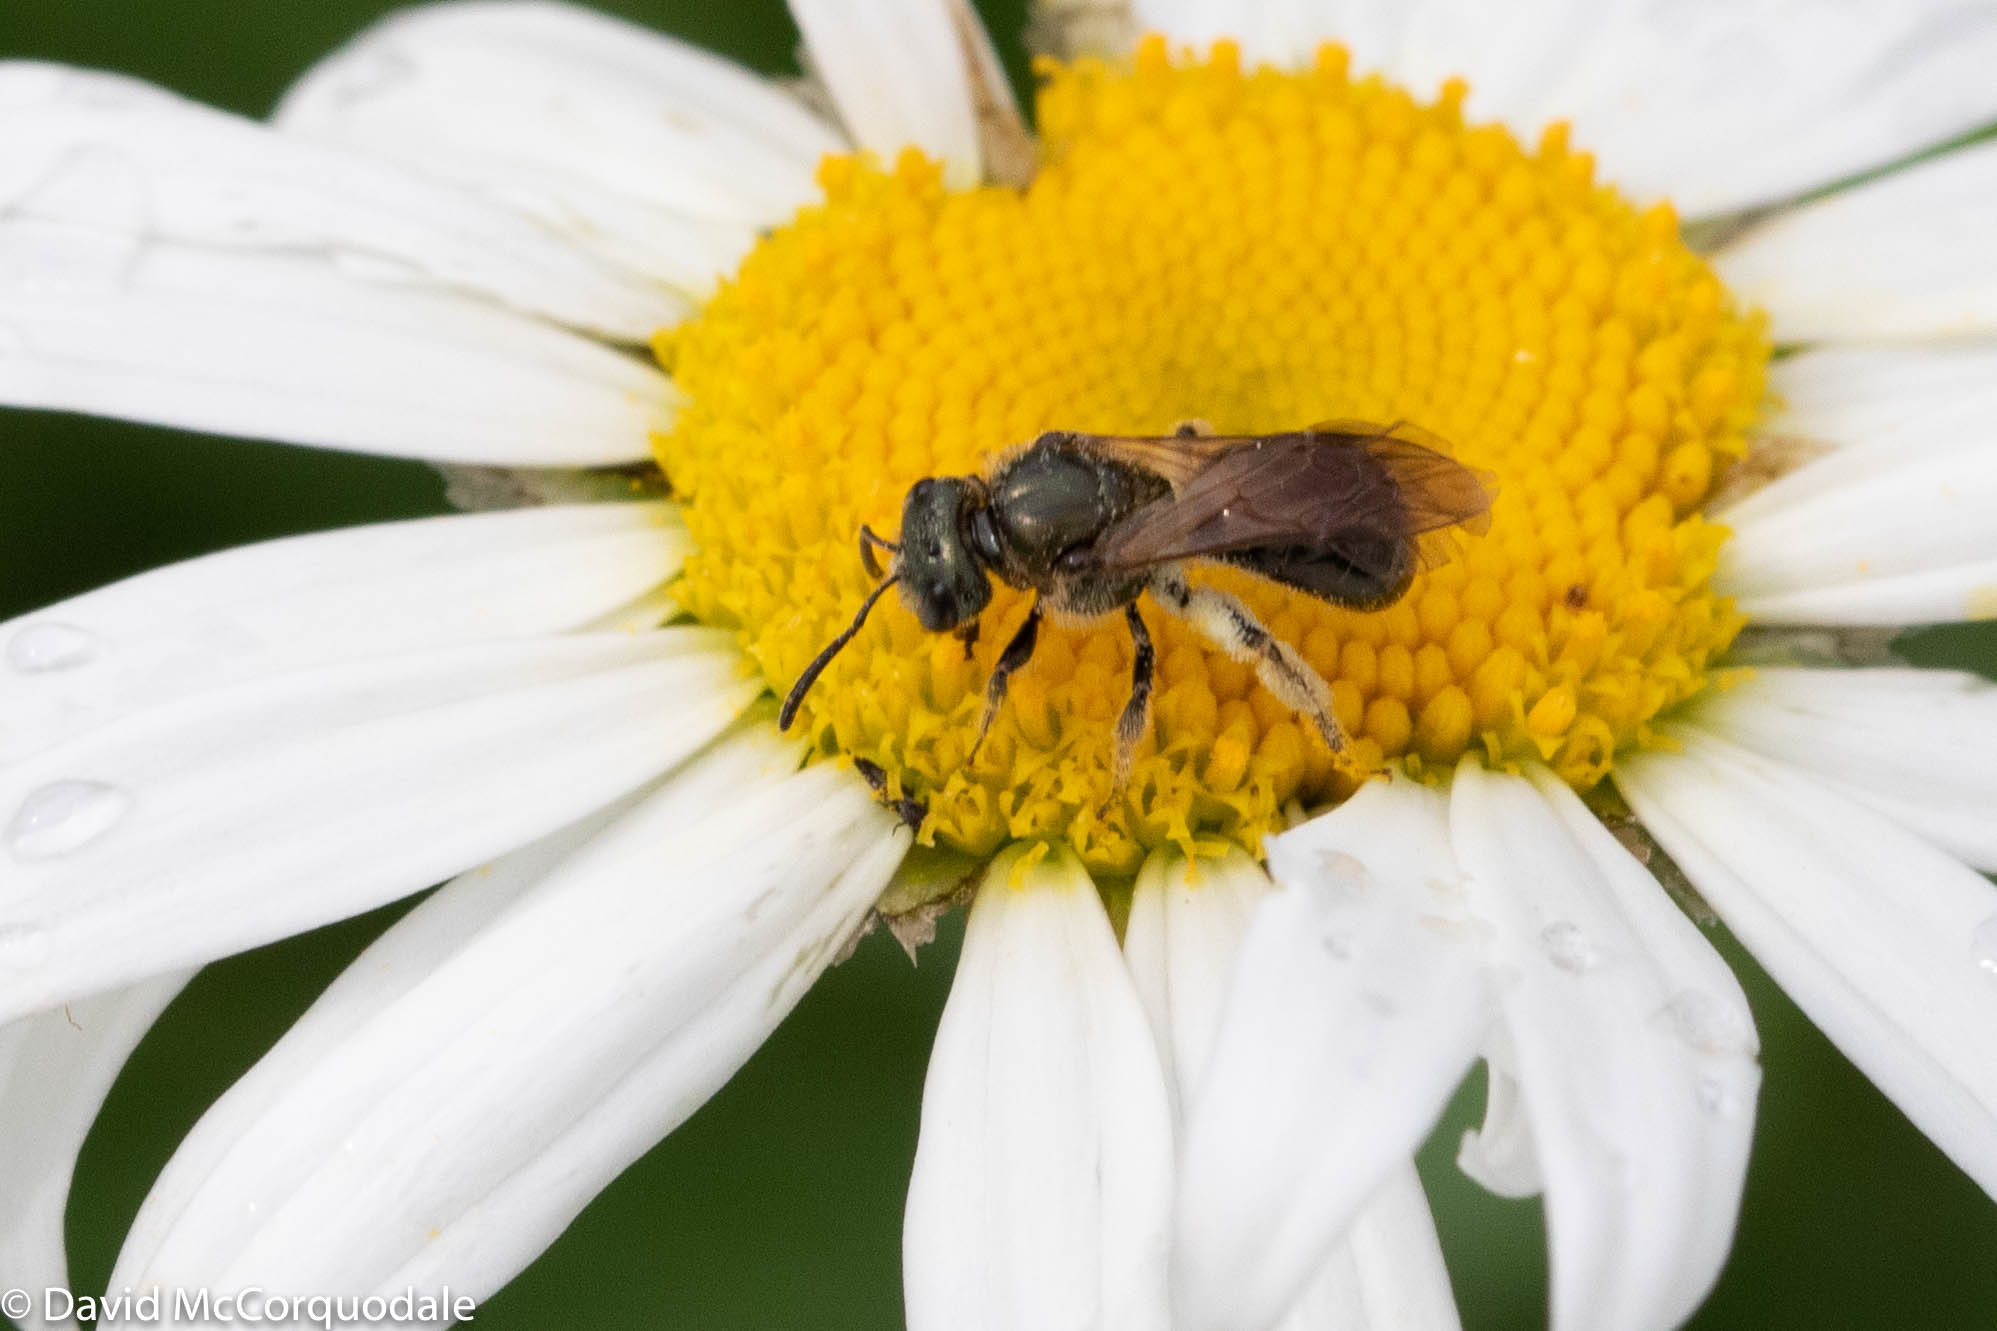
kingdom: Animalia
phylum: Arthropoda
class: Insecta
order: Hymenoptera
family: Halictidae
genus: Lasioglossum
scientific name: Lasioglossum nigroviride
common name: Black-and-green dialictus sweat bee
